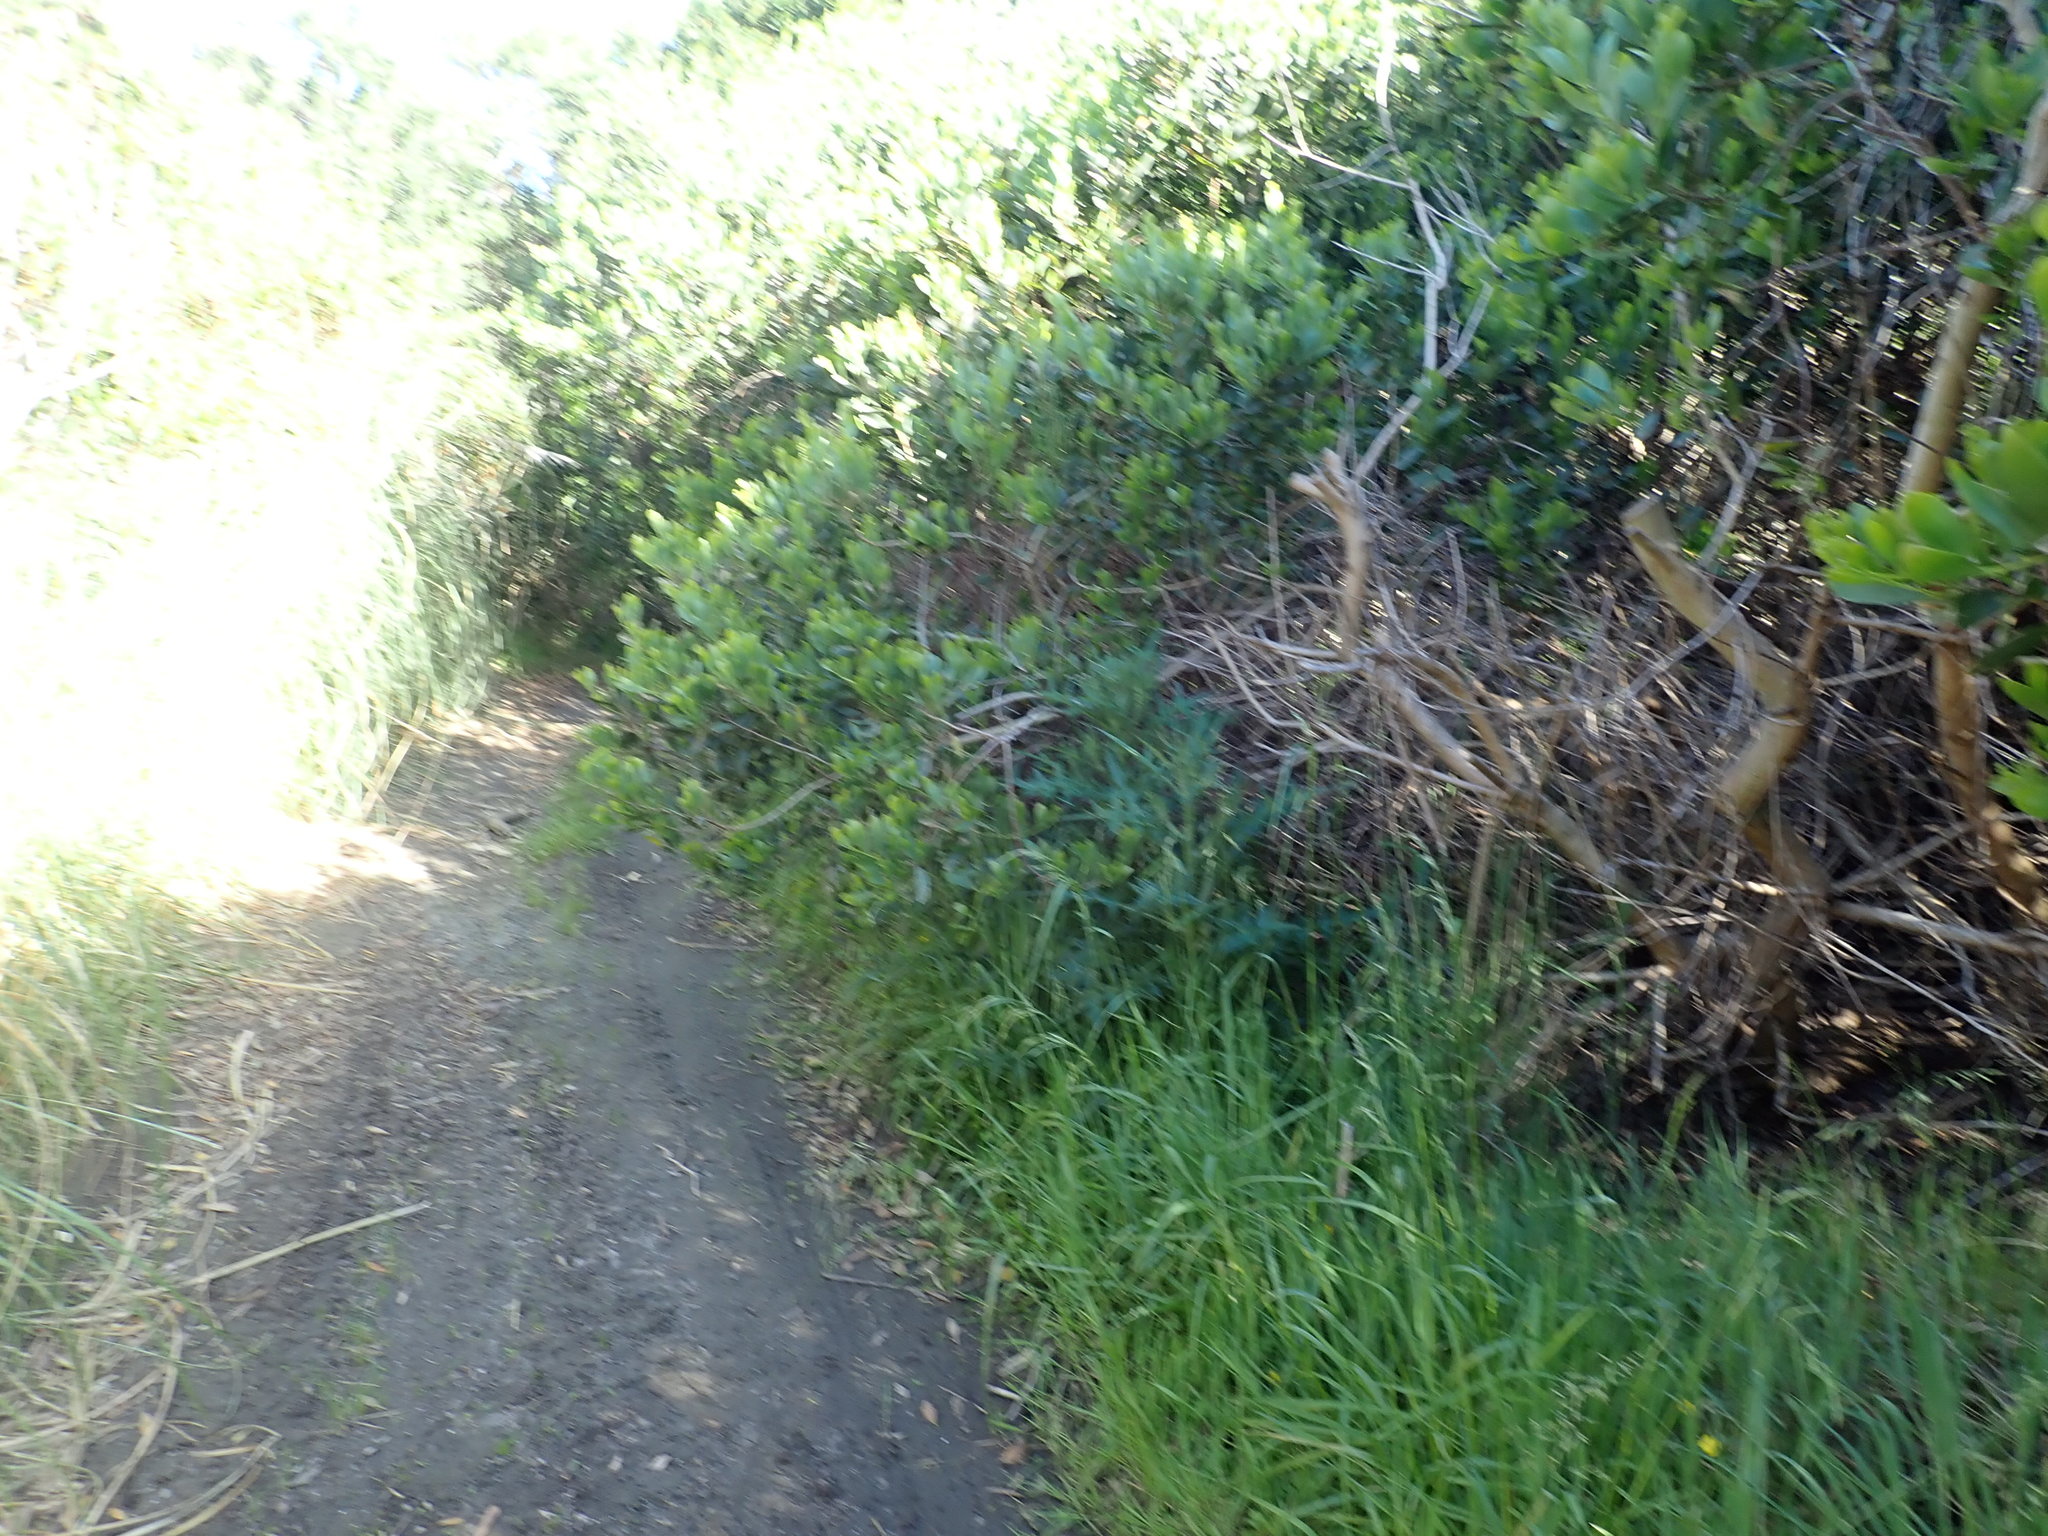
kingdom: Plantae
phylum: Tracheophyta
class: Magnoliopsida
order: Asterales
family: Asteraceae
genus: Cirsium
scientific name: Cirsium vulgare
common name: Bull thistle
